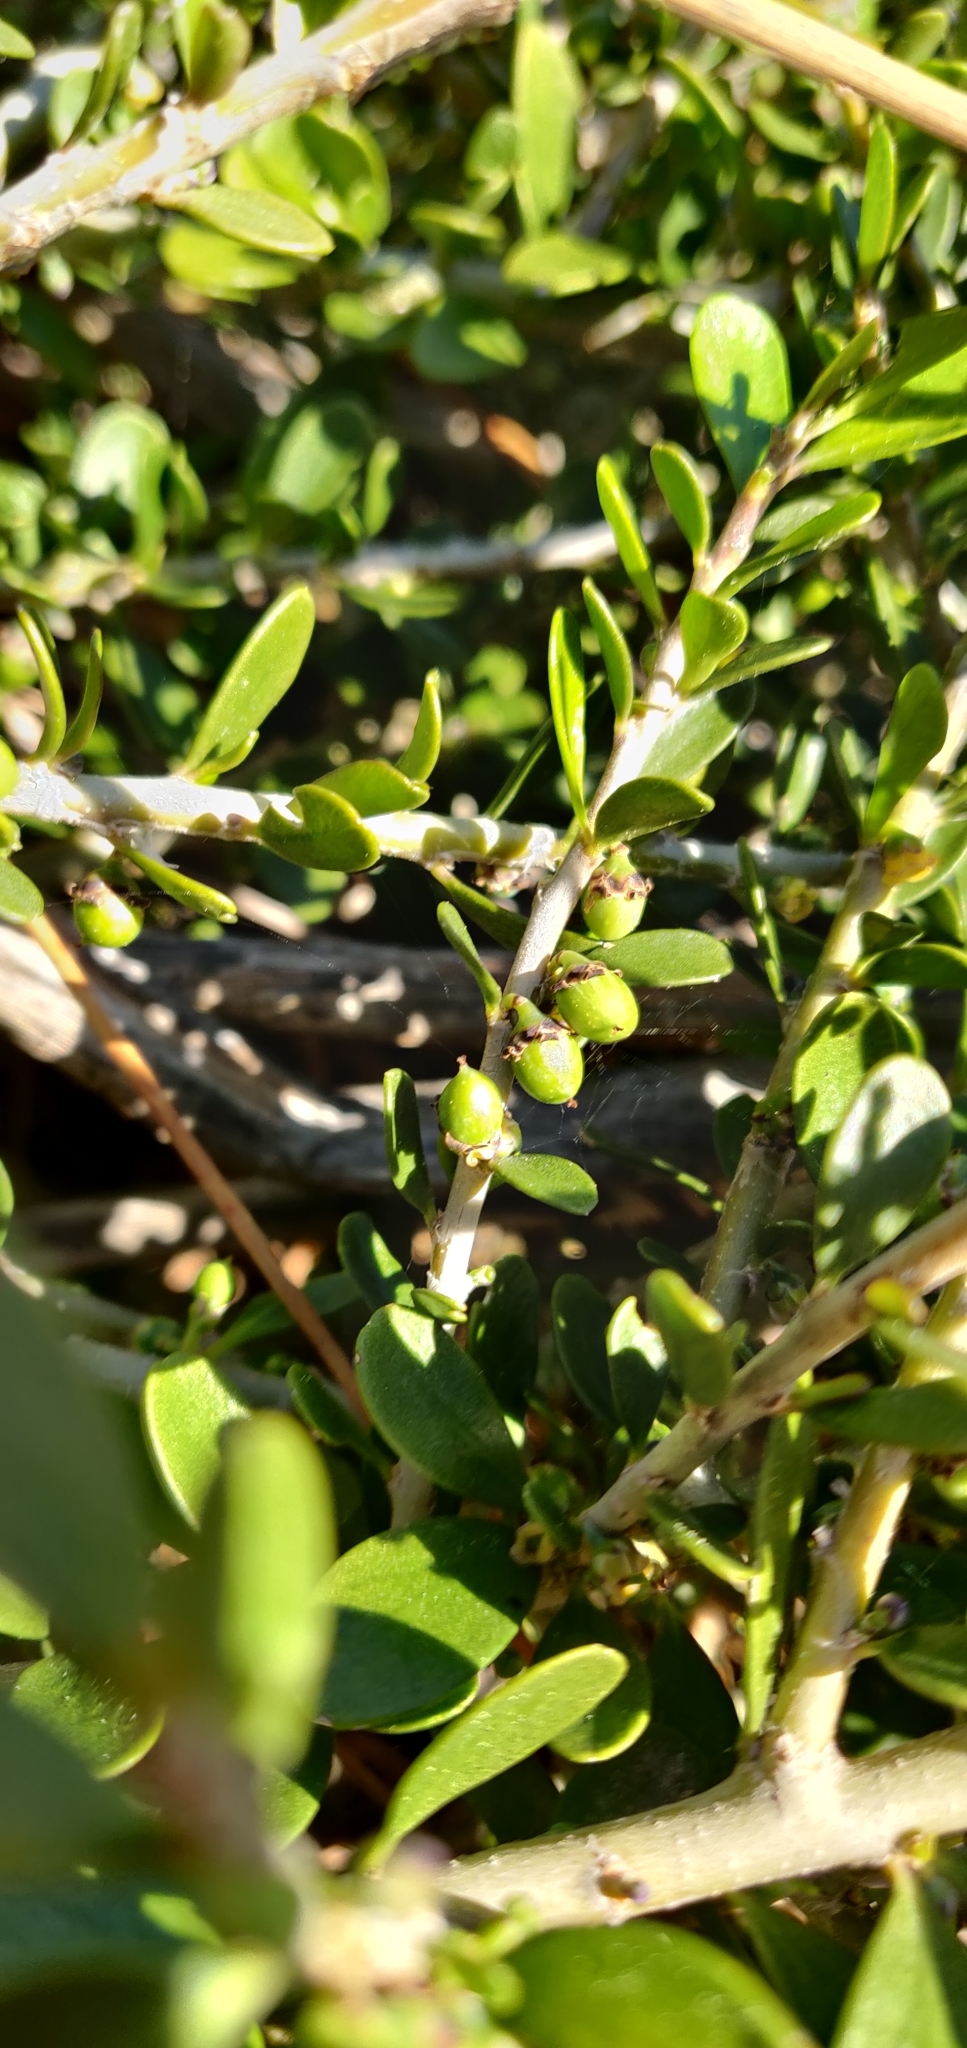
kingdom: Plantae
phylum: Tracheophyta
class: Magnoliopsida
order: Malpighiales
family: Violaceae
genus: Melicytus
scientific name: Melicytus crassifolius
